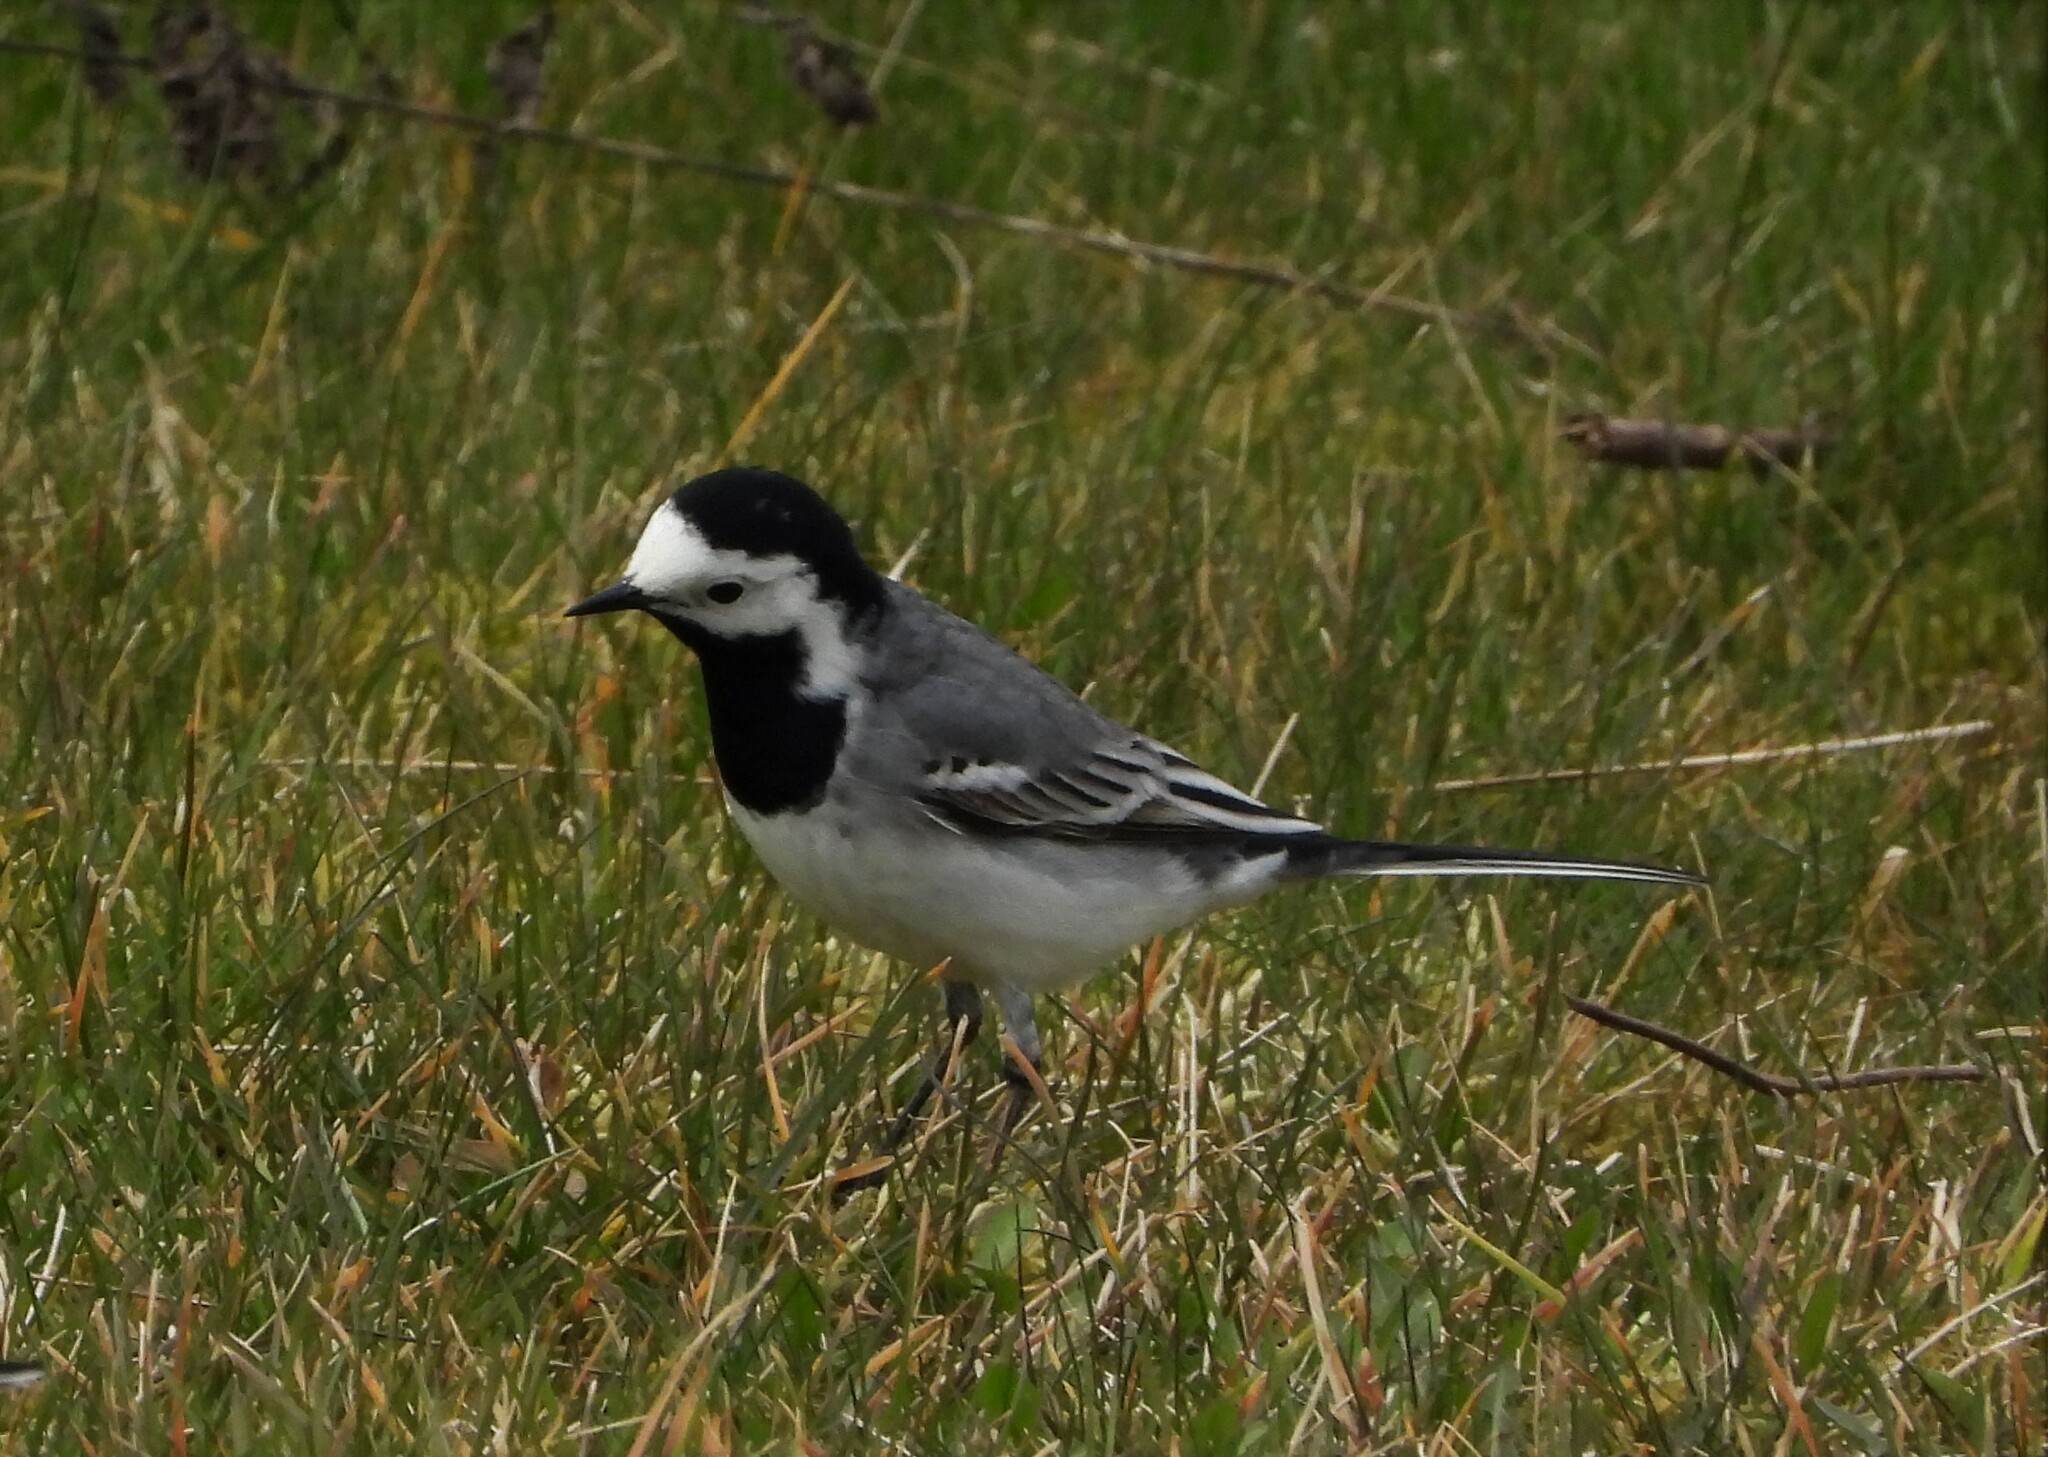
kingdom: Animalia
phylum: Chordata
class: Aves
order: Passeriformes
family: Motacillidae
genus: Motacilla
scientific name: Motacilla alba
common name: White wagtail
